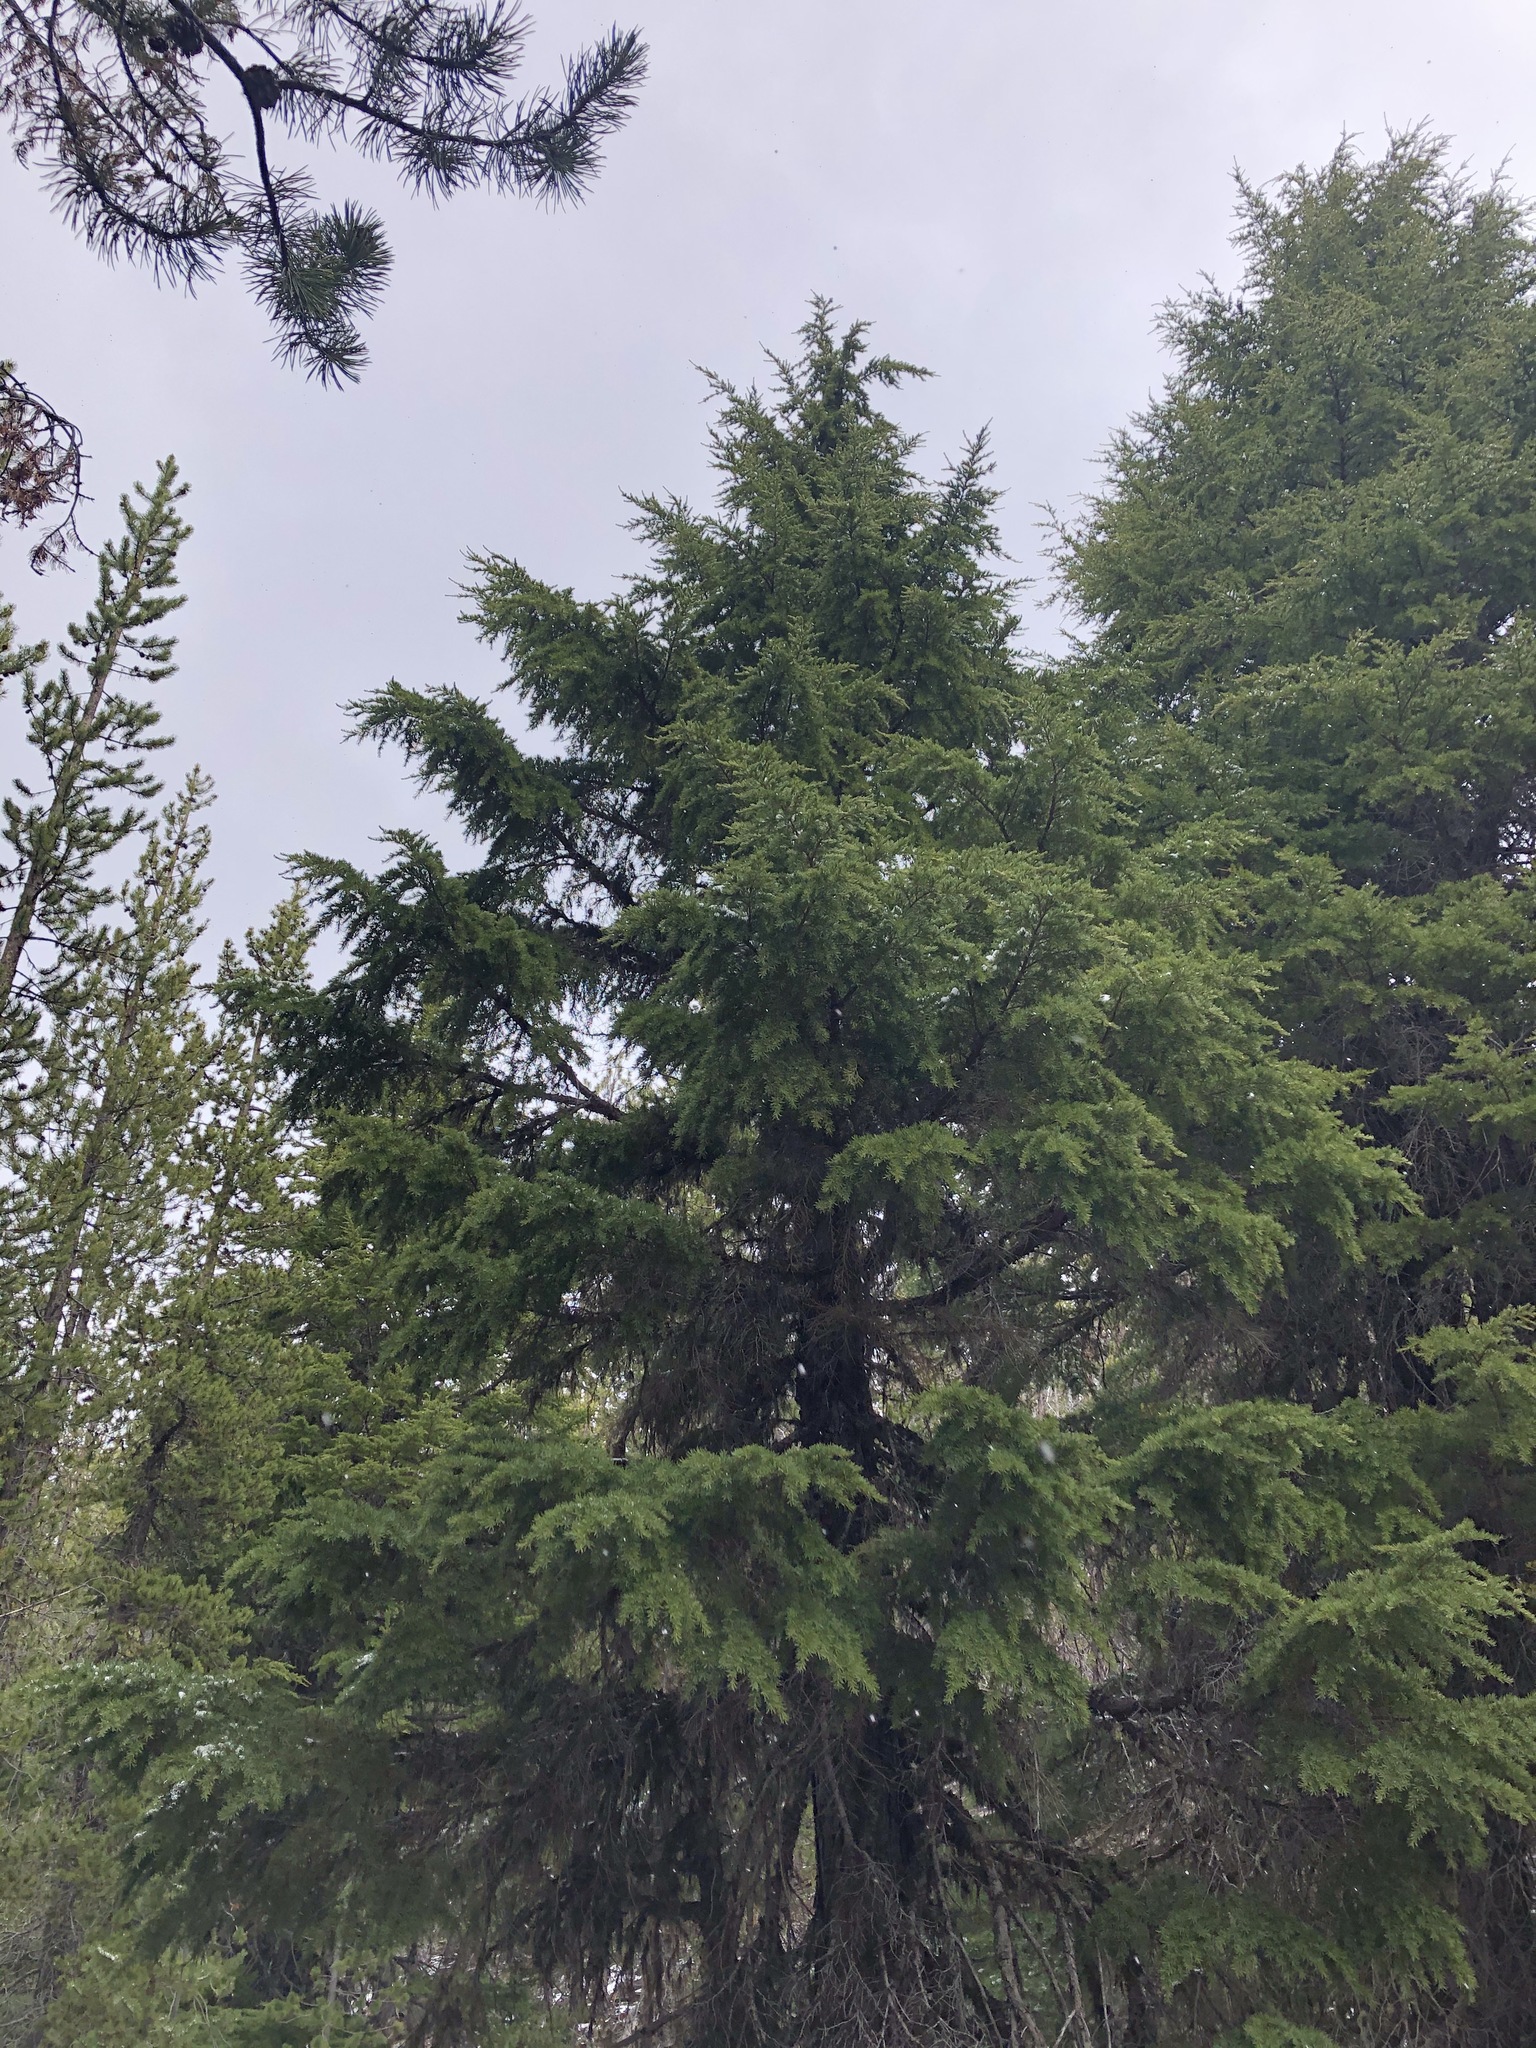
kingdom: Plantae
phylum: Tracheophyta
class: Pinopsida
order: Pinales
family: Pinaceae
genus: Tsuga
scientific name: Tsuga mertensiana
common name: Mountain hemlock
